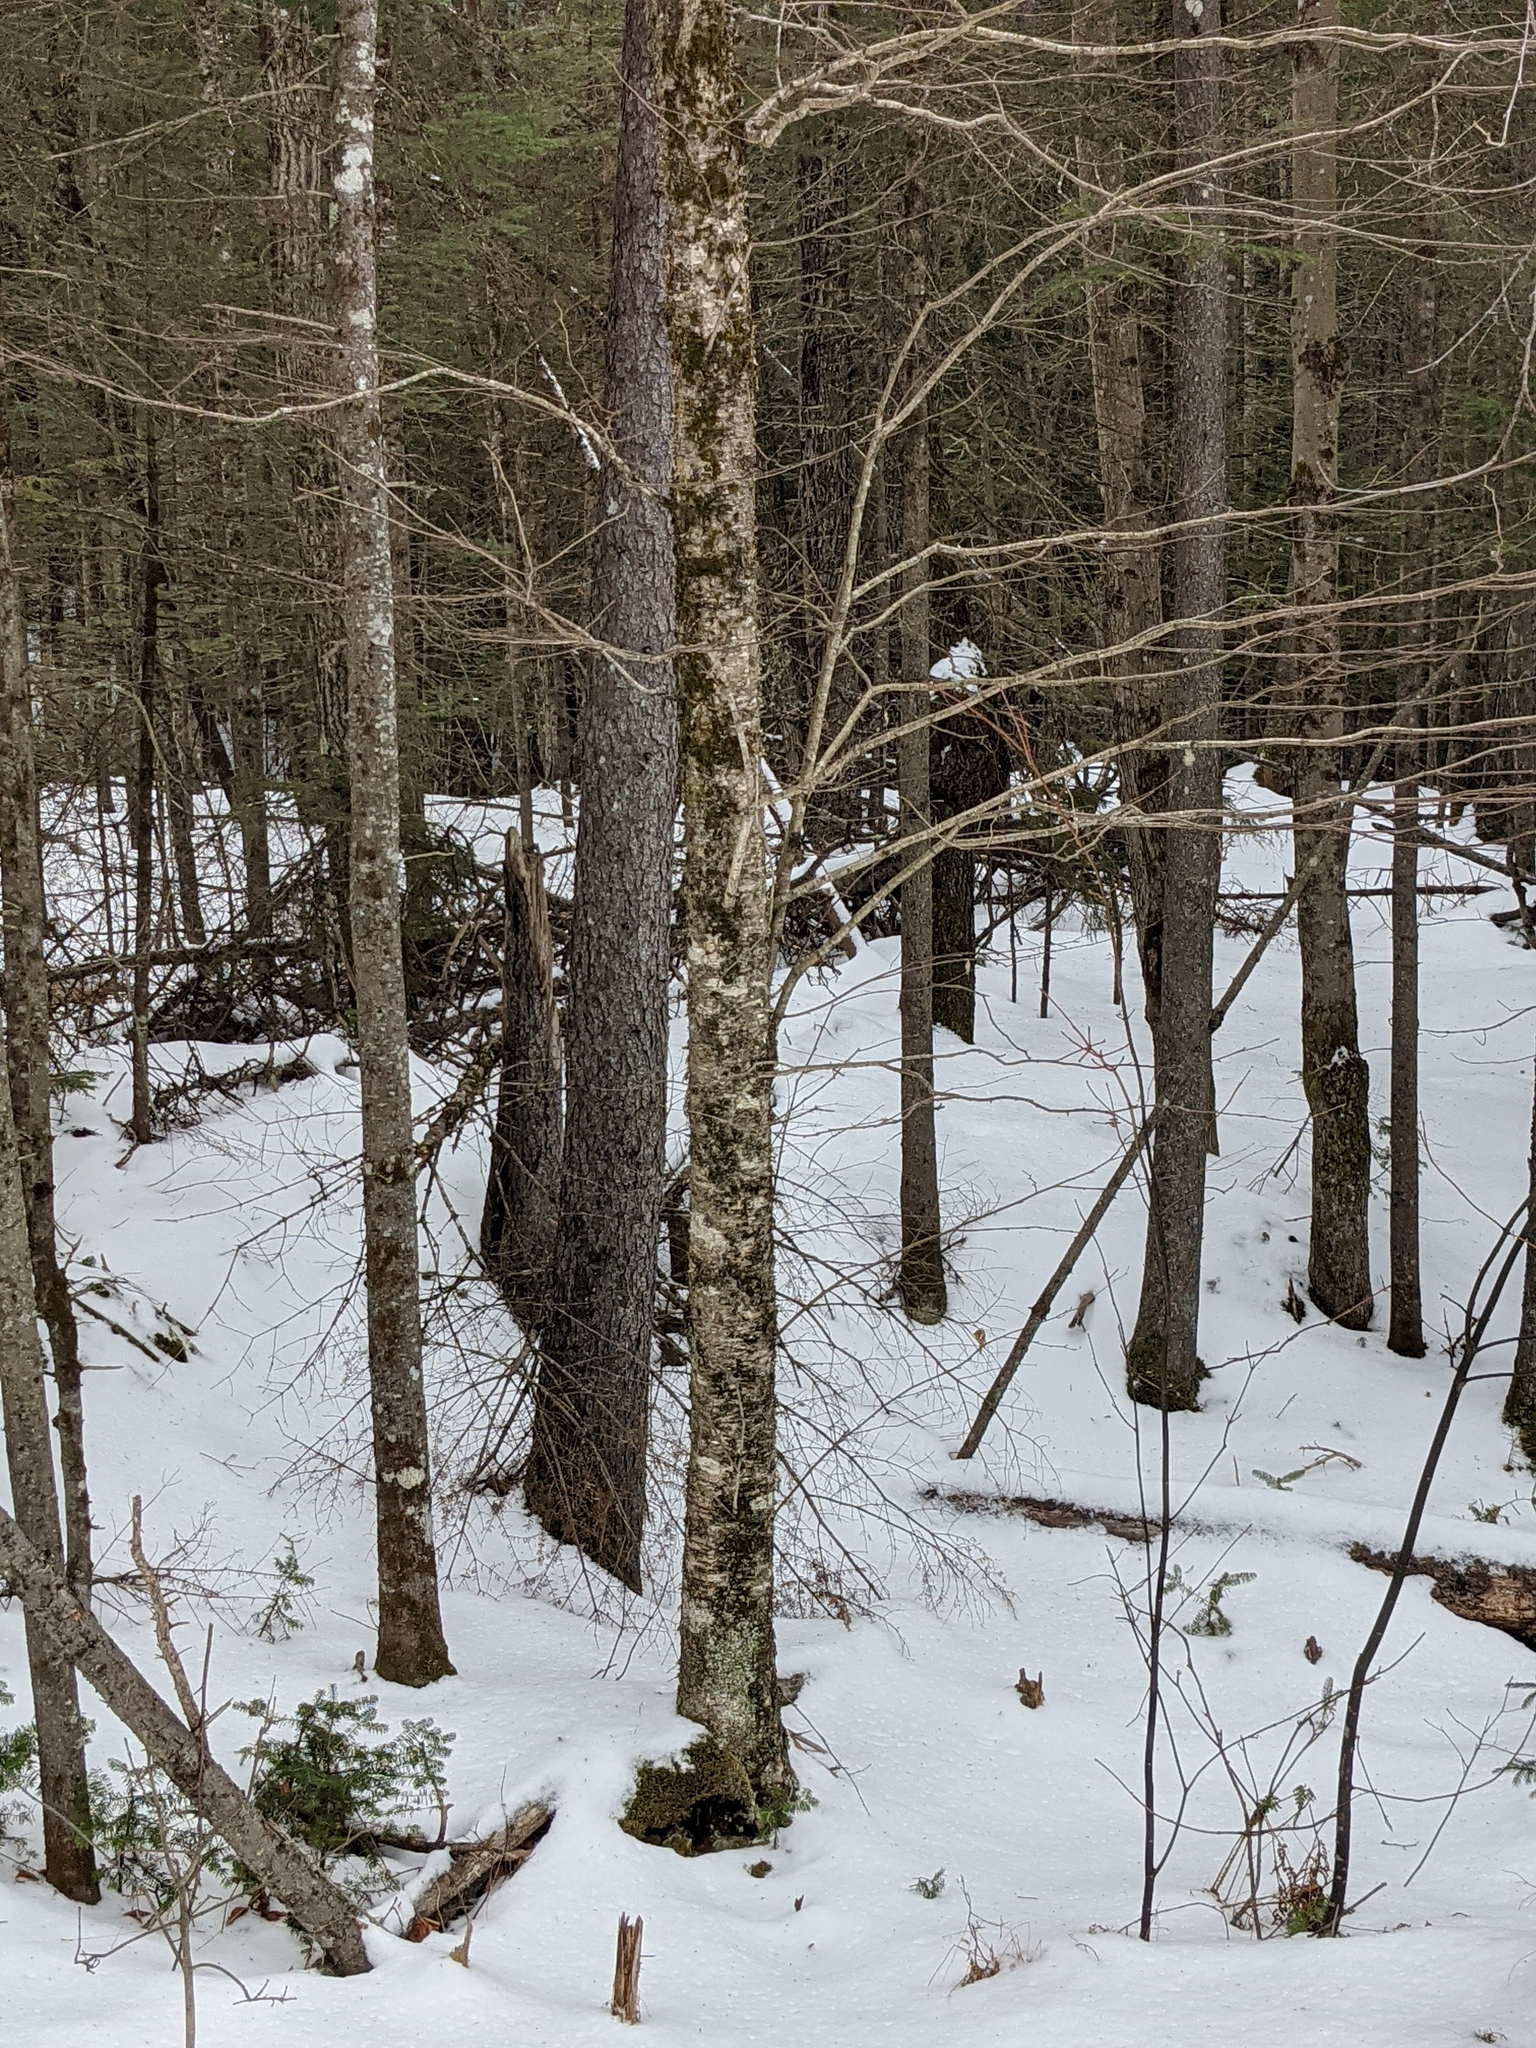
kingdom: Plantae
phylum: Tracheophyta
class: Magnoliopsida
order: Fagales
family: Betulaceae
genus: Betula
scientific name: Betula alleghaniensis
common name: Yellow birch
